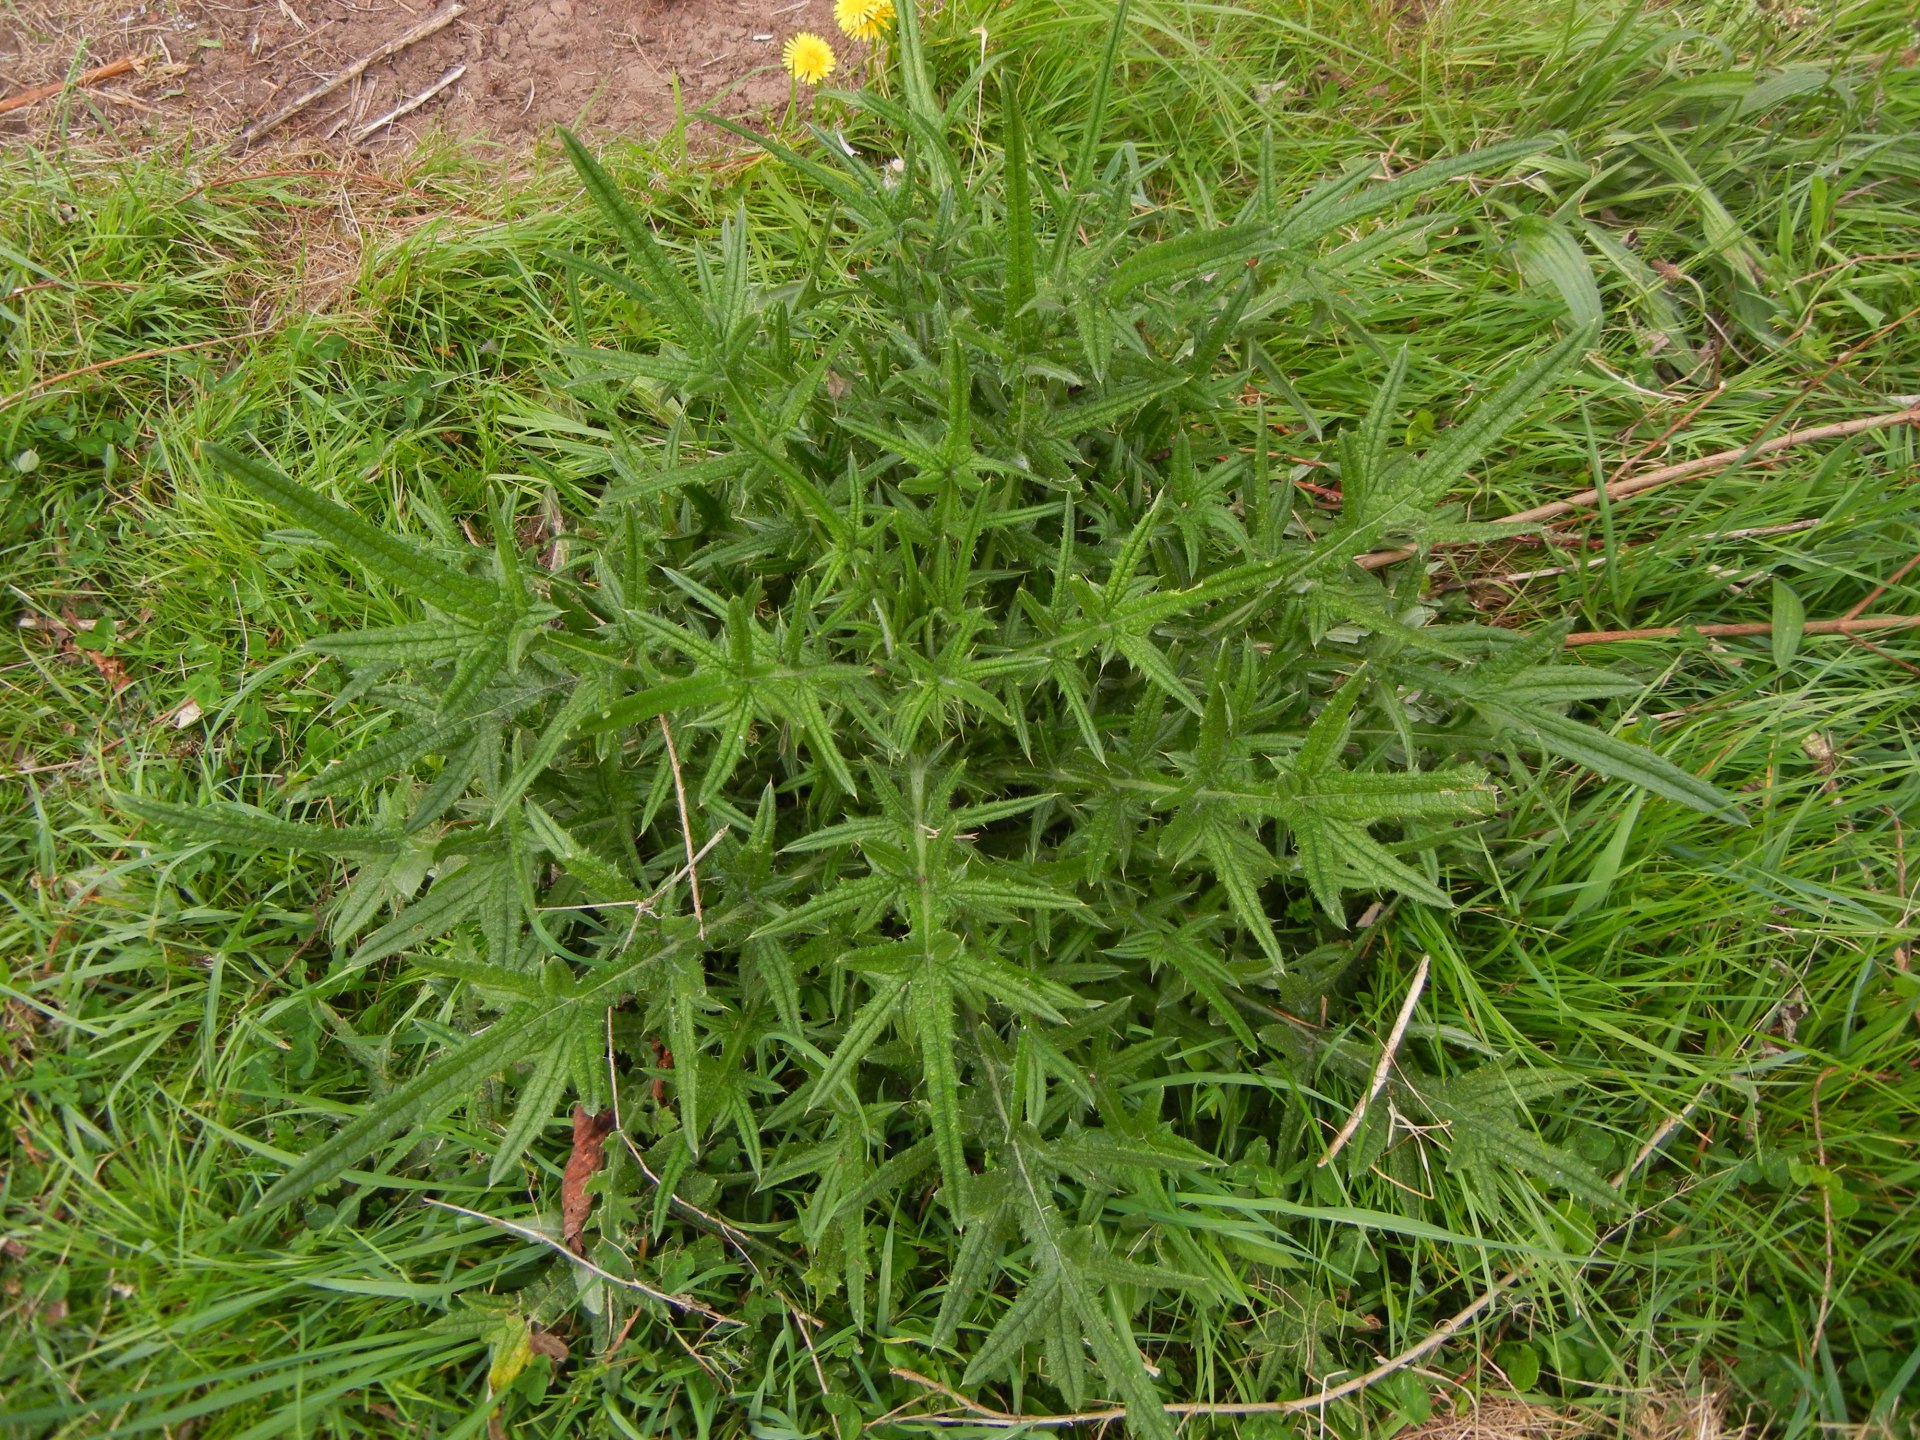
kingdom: Plantae
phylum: Tracheophyta
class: Magnoliopsida
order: Asterales
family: Asteraceae
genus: Cirsium
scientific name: Cirsium vulgare
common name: Bull thistle
